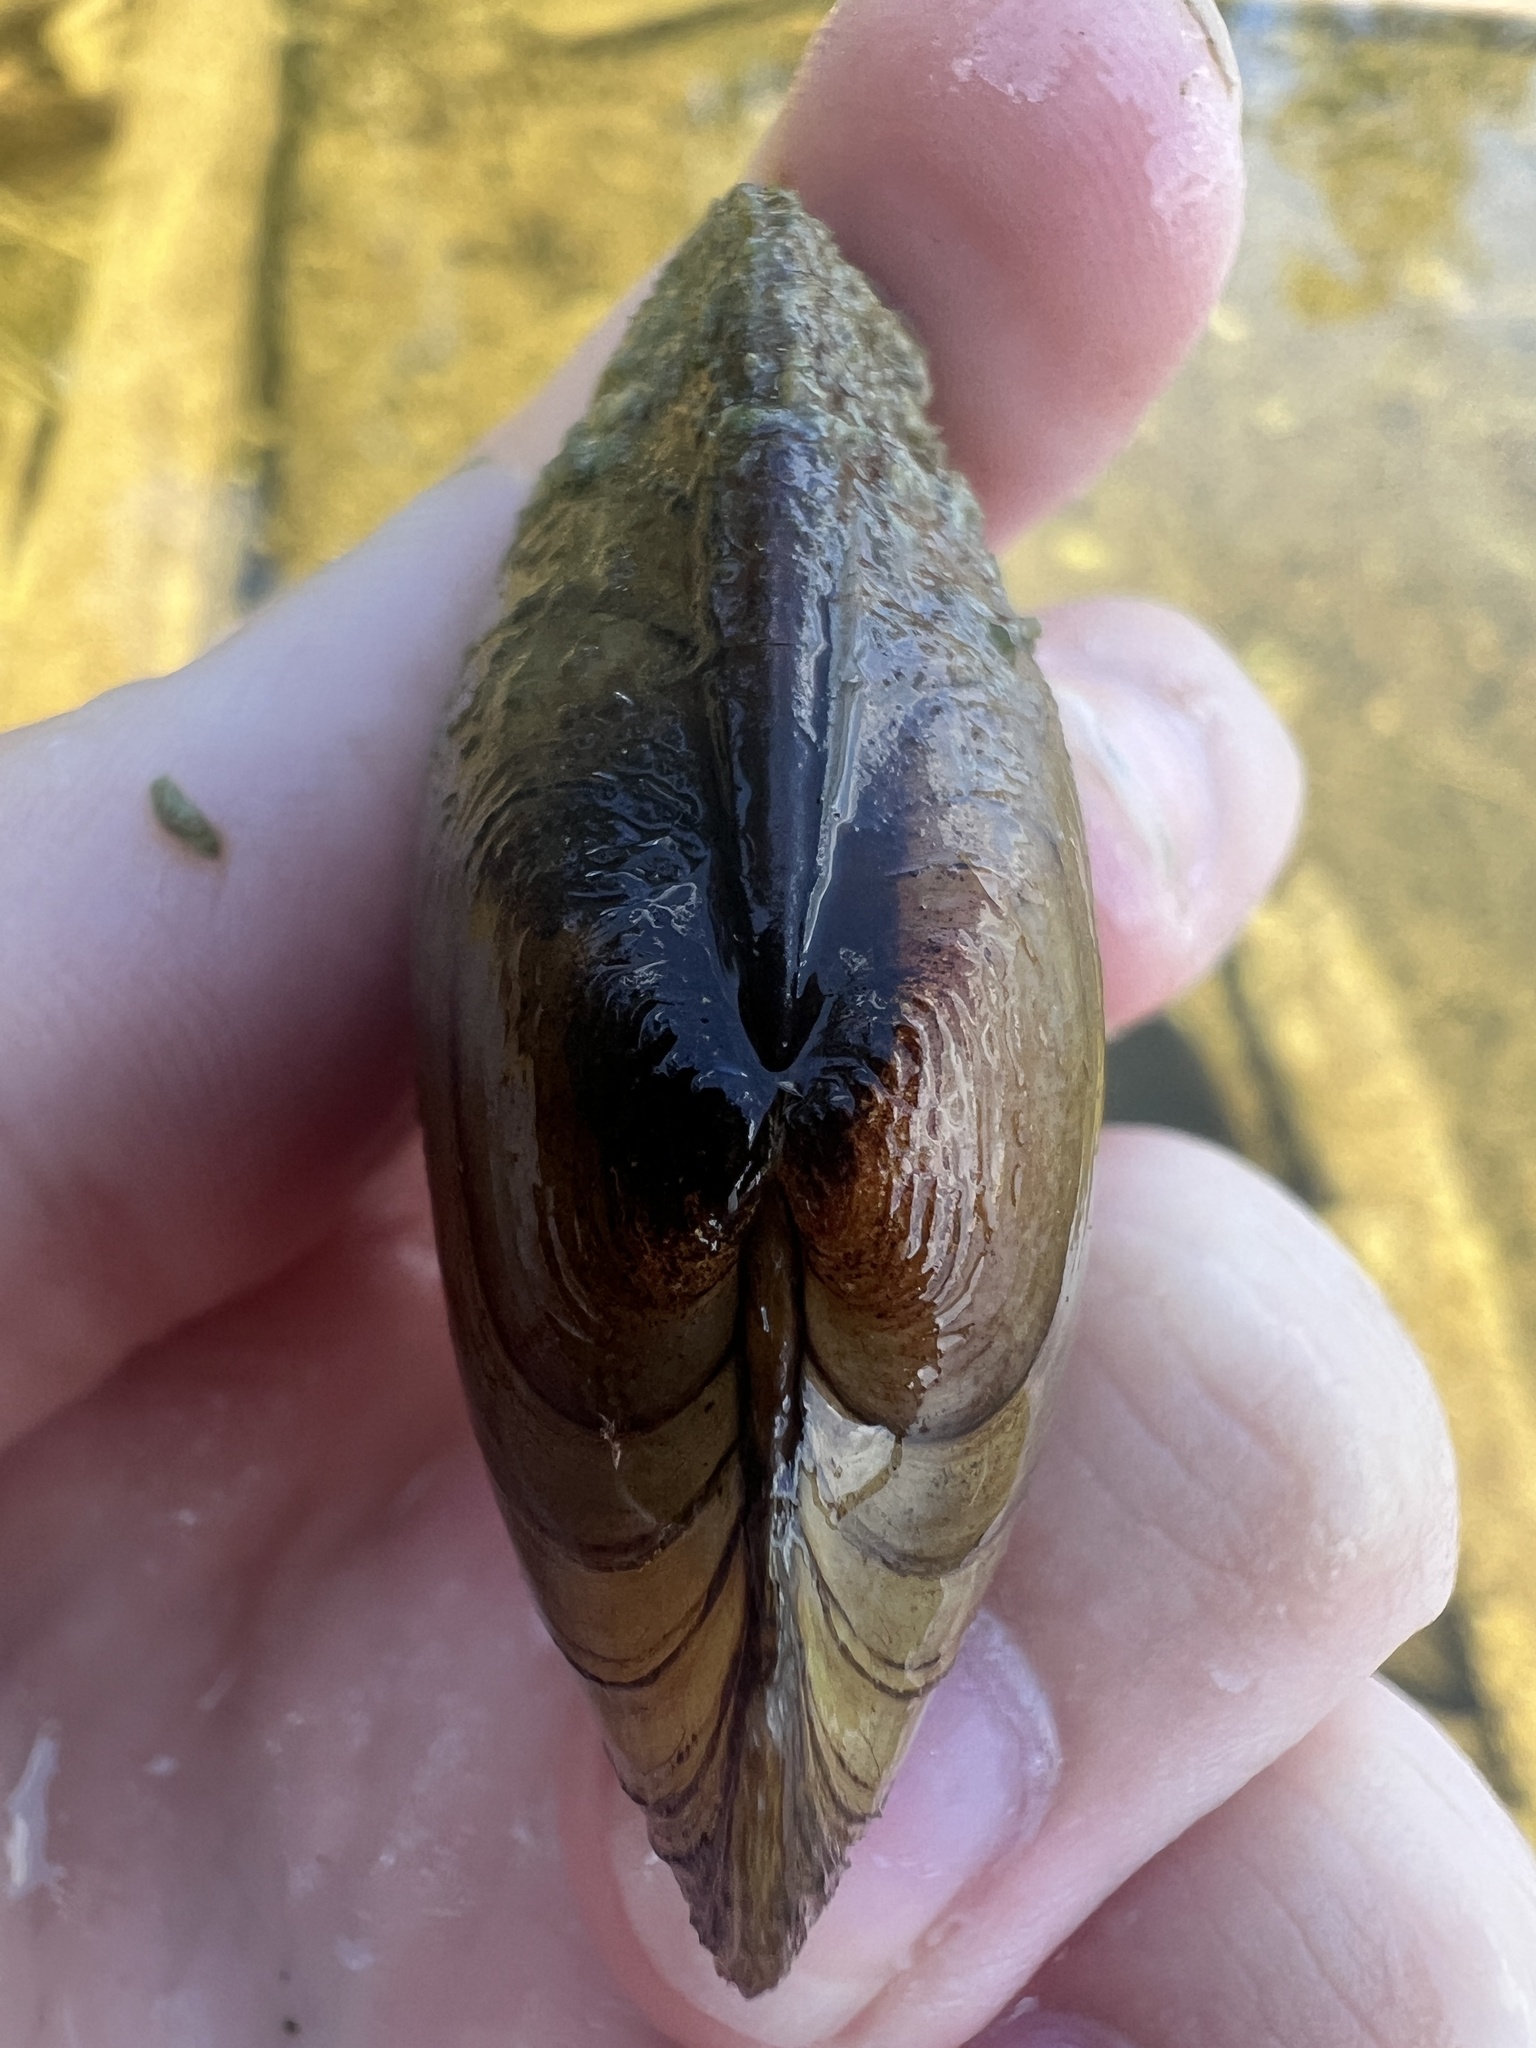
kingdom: Animalia
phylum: Mollusca
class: Bivalvia
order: Unionida
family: Unionidae
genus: Lampsilis
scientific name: Lampsilis siliquoidea
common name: Fatmucket
